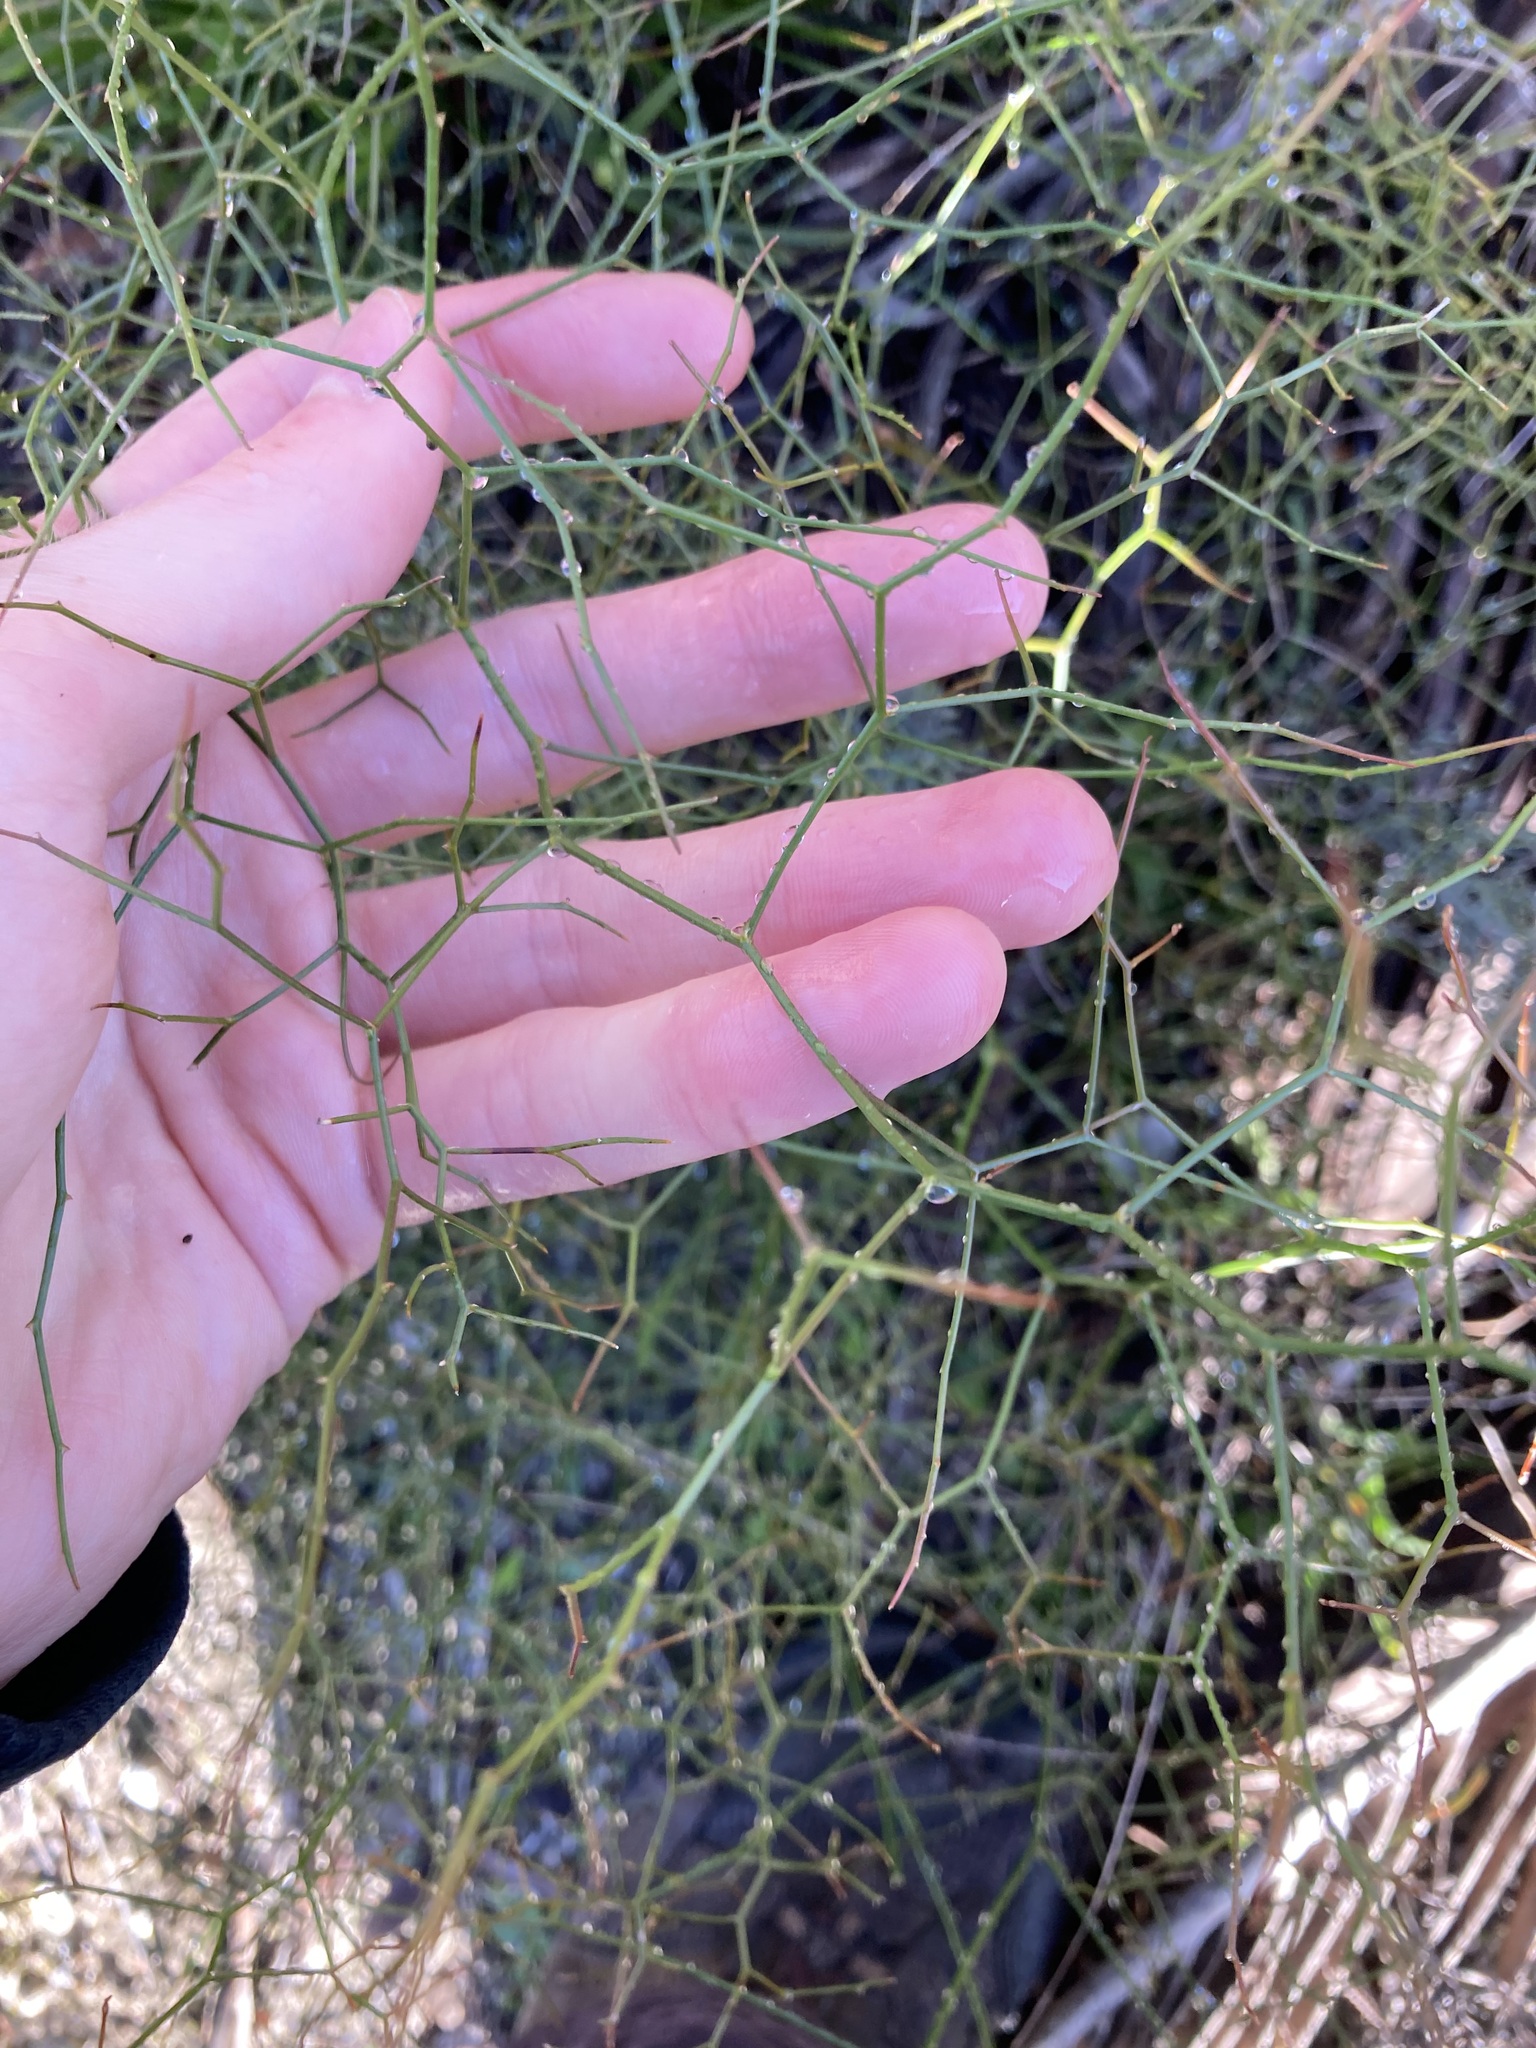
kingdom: Plantae
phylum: Tracheophyta
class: Liliopsida
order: Asparagales
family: Asphodelaceae
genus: Corynotheca
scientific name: Corynotheca micrantha
